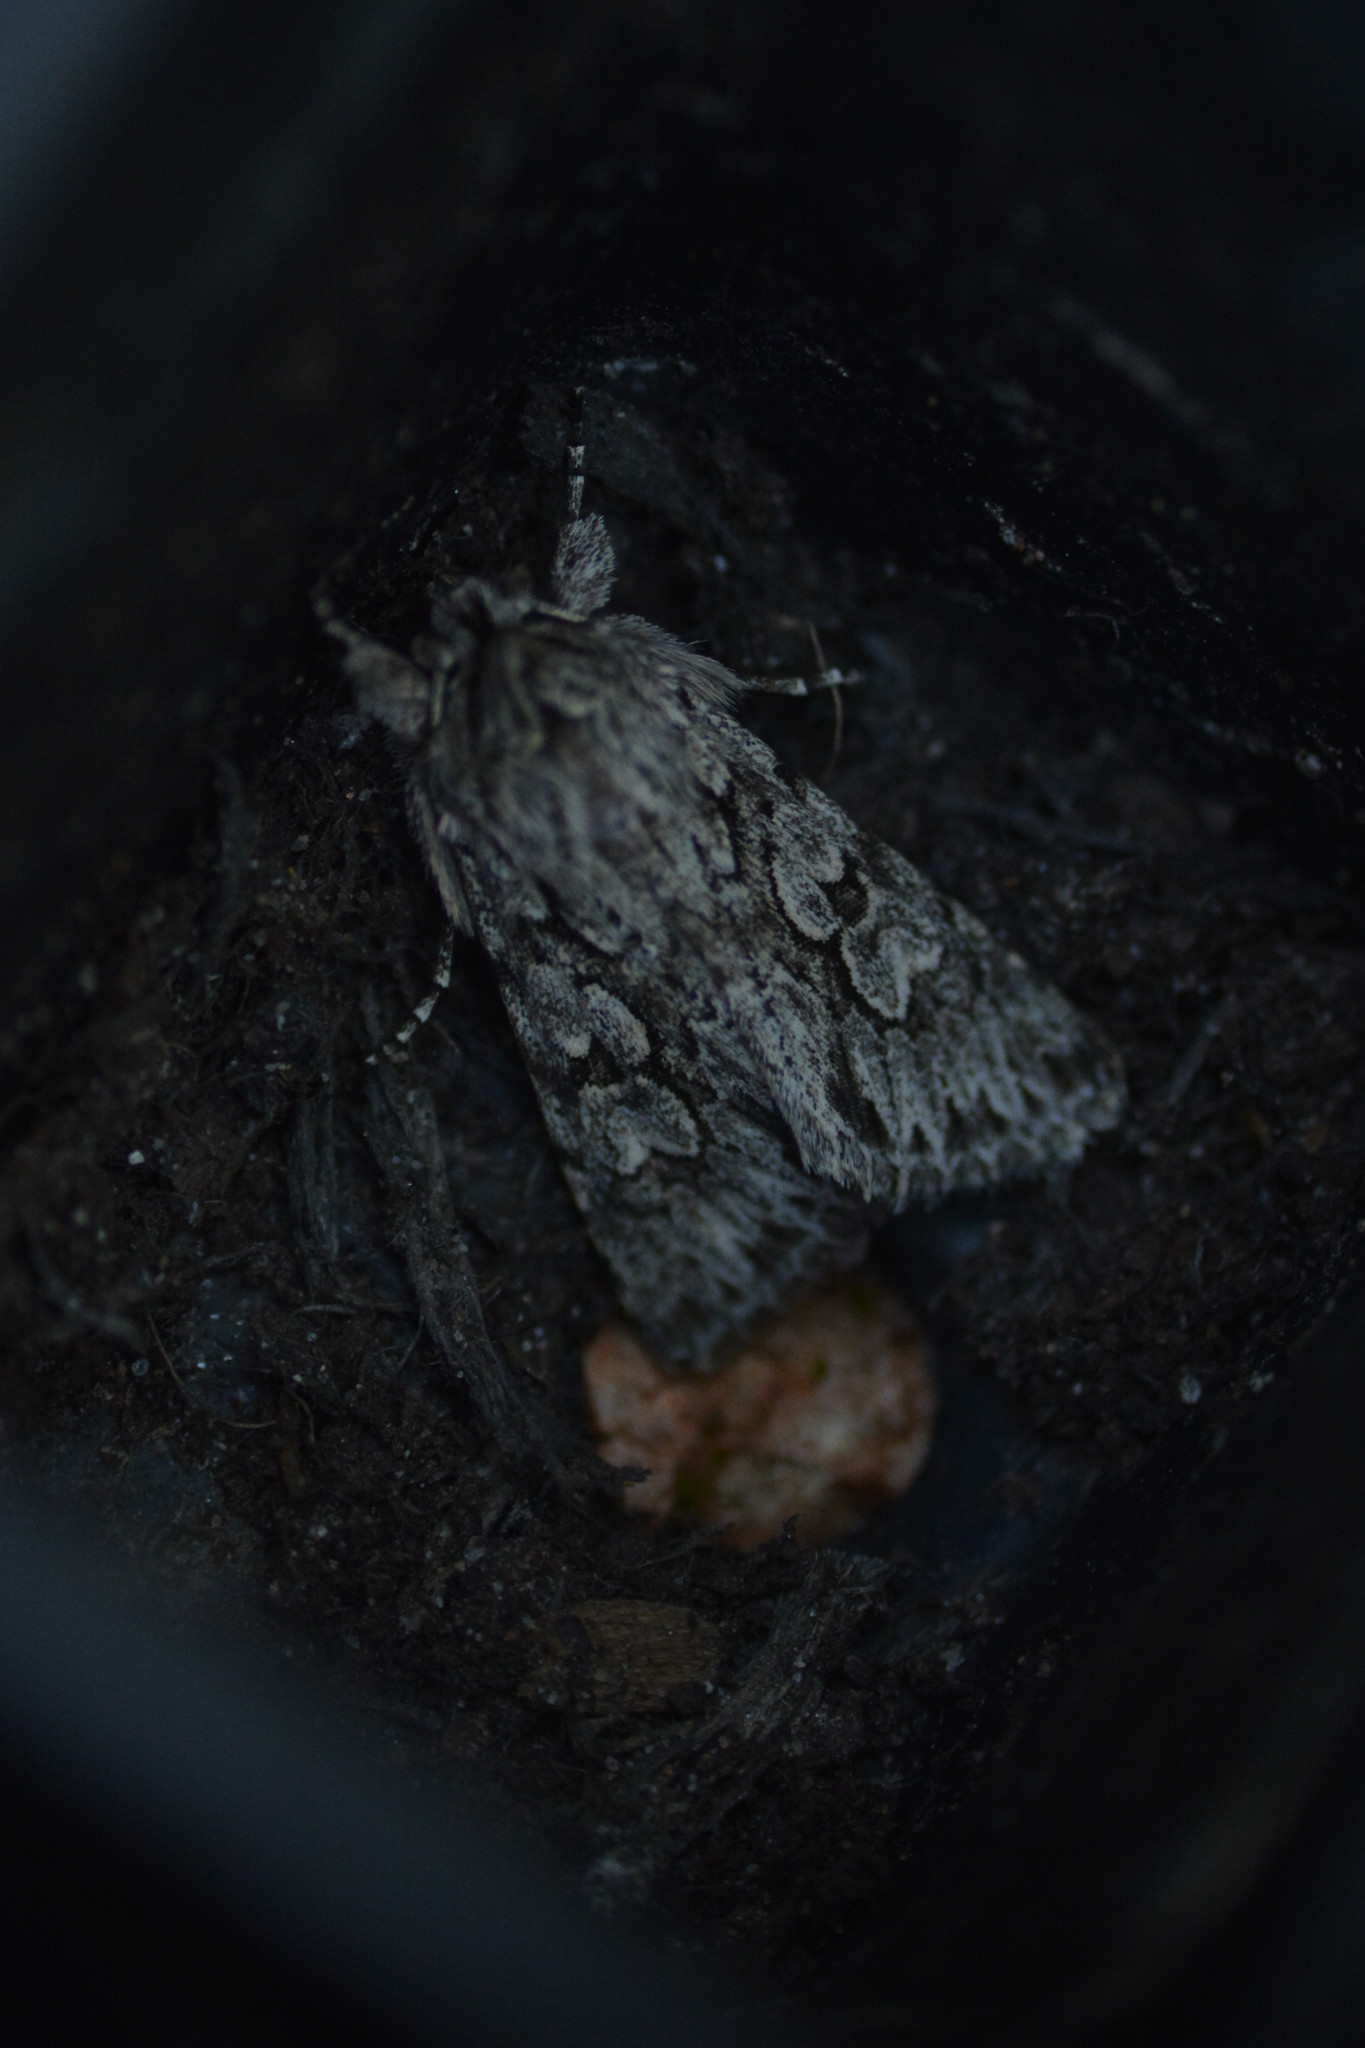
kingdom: Animalia
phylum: Arthropoda
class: Insecta
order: Lepidoptera
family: Noctuidae
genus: Xylocampa
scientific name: Xylocampa areola
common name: Early grey
